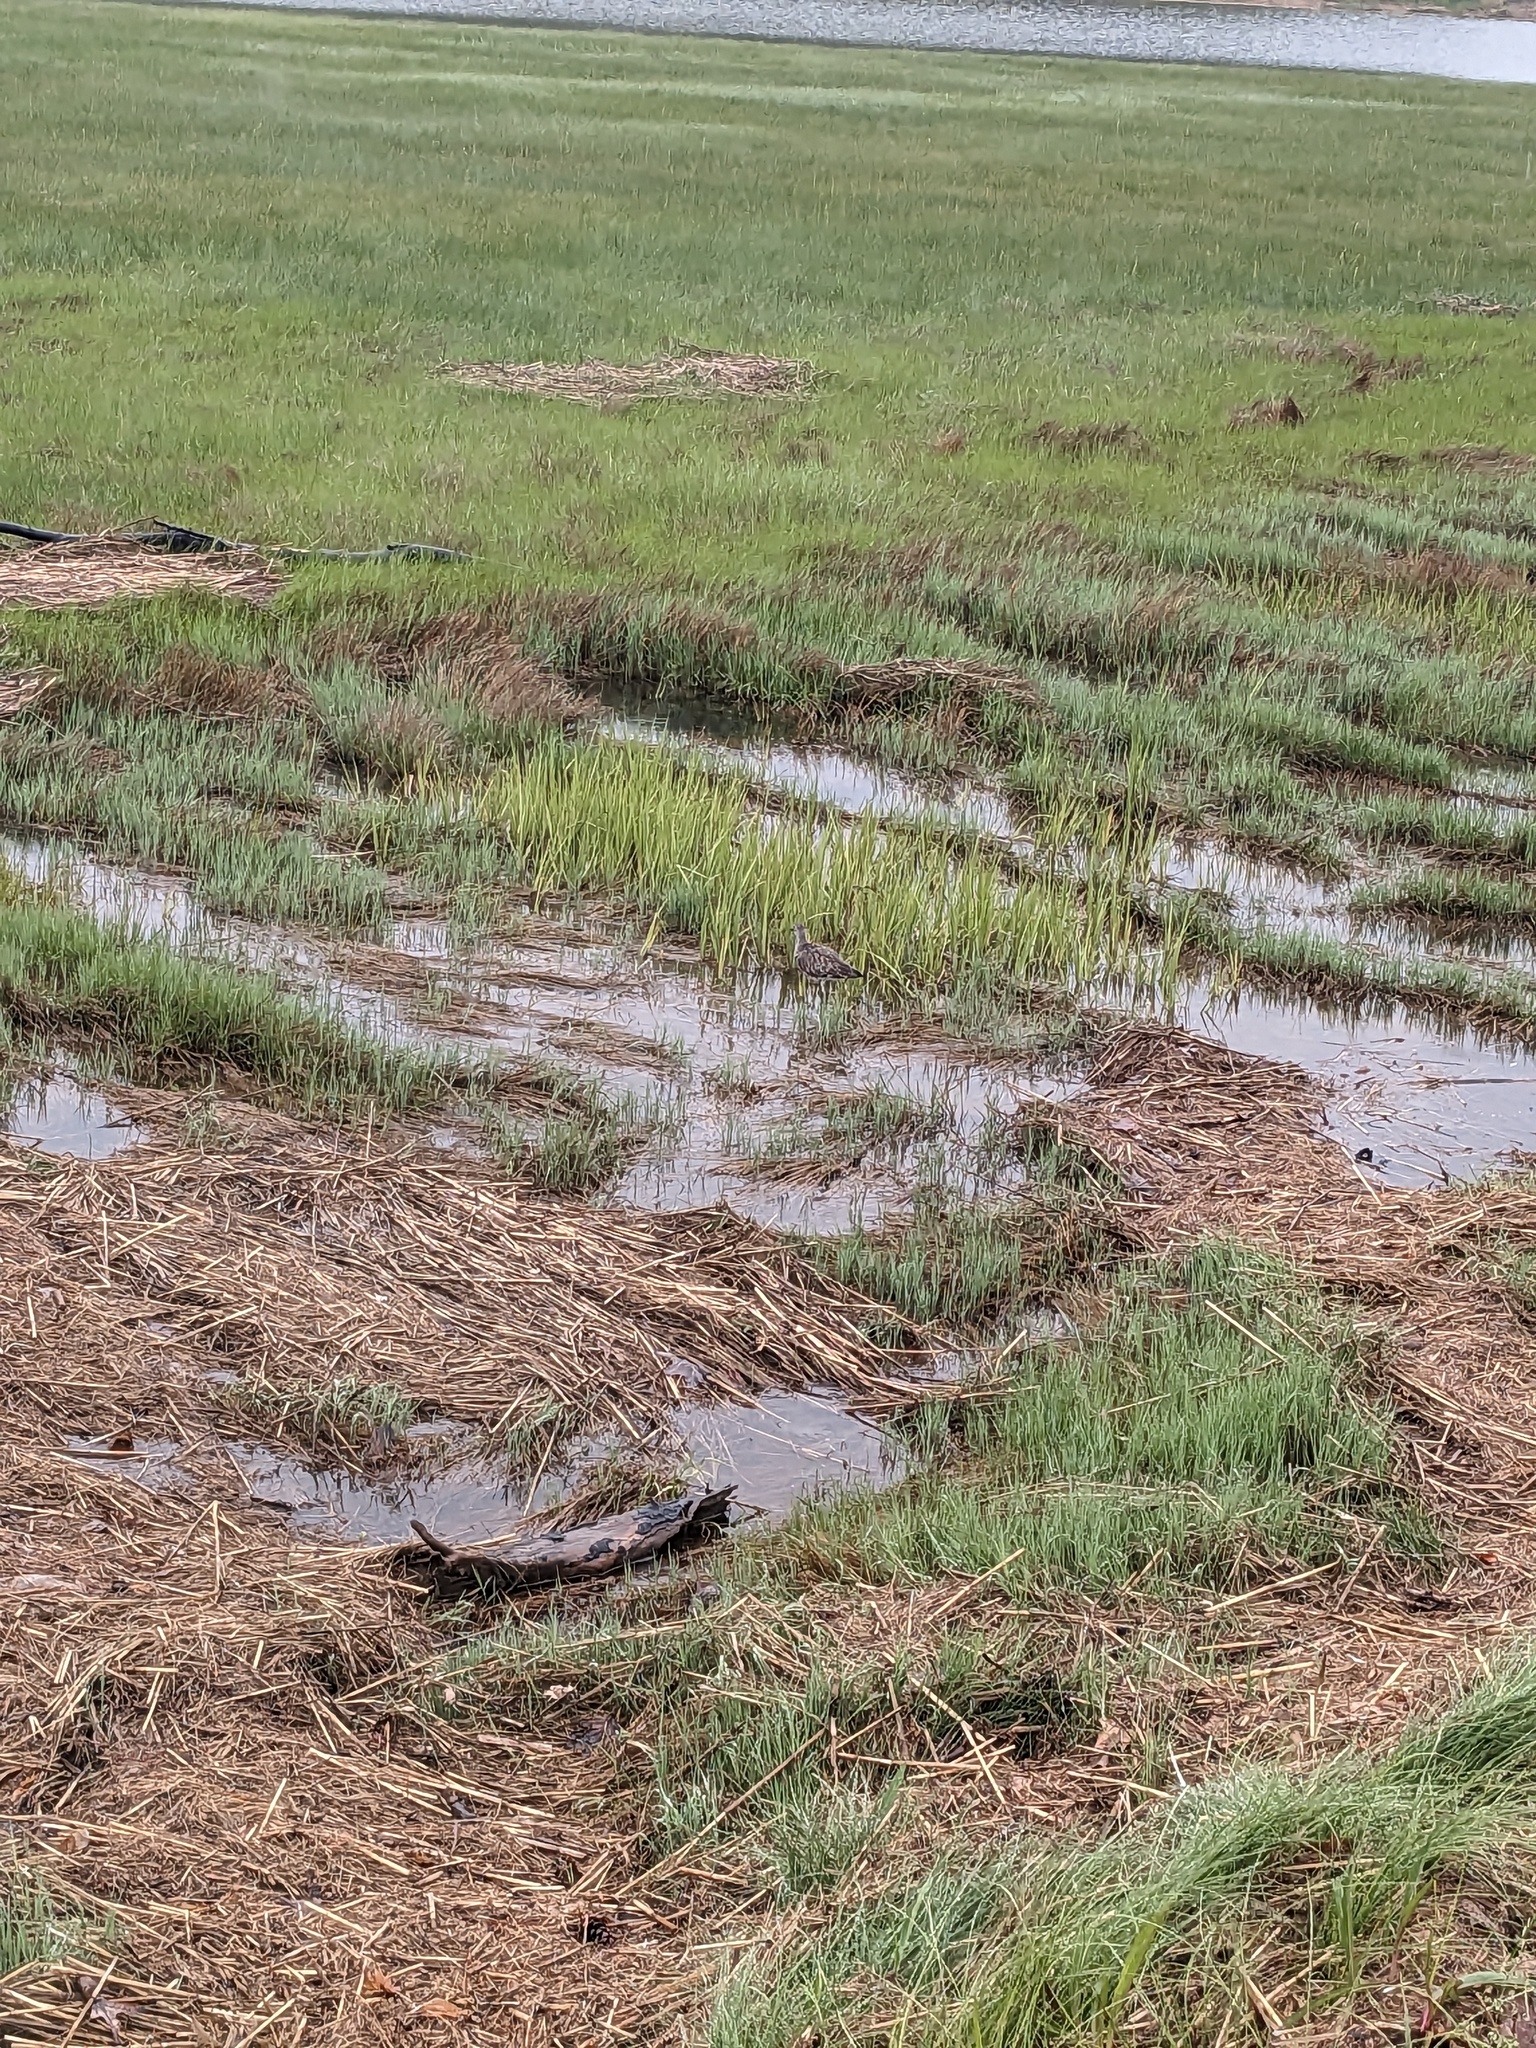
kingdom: Animalia
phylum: Chordata
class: Aves
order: Charadriiformes
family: Scolopacidae
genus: Tringa
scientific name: Tringa semipalmata
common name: Willet
